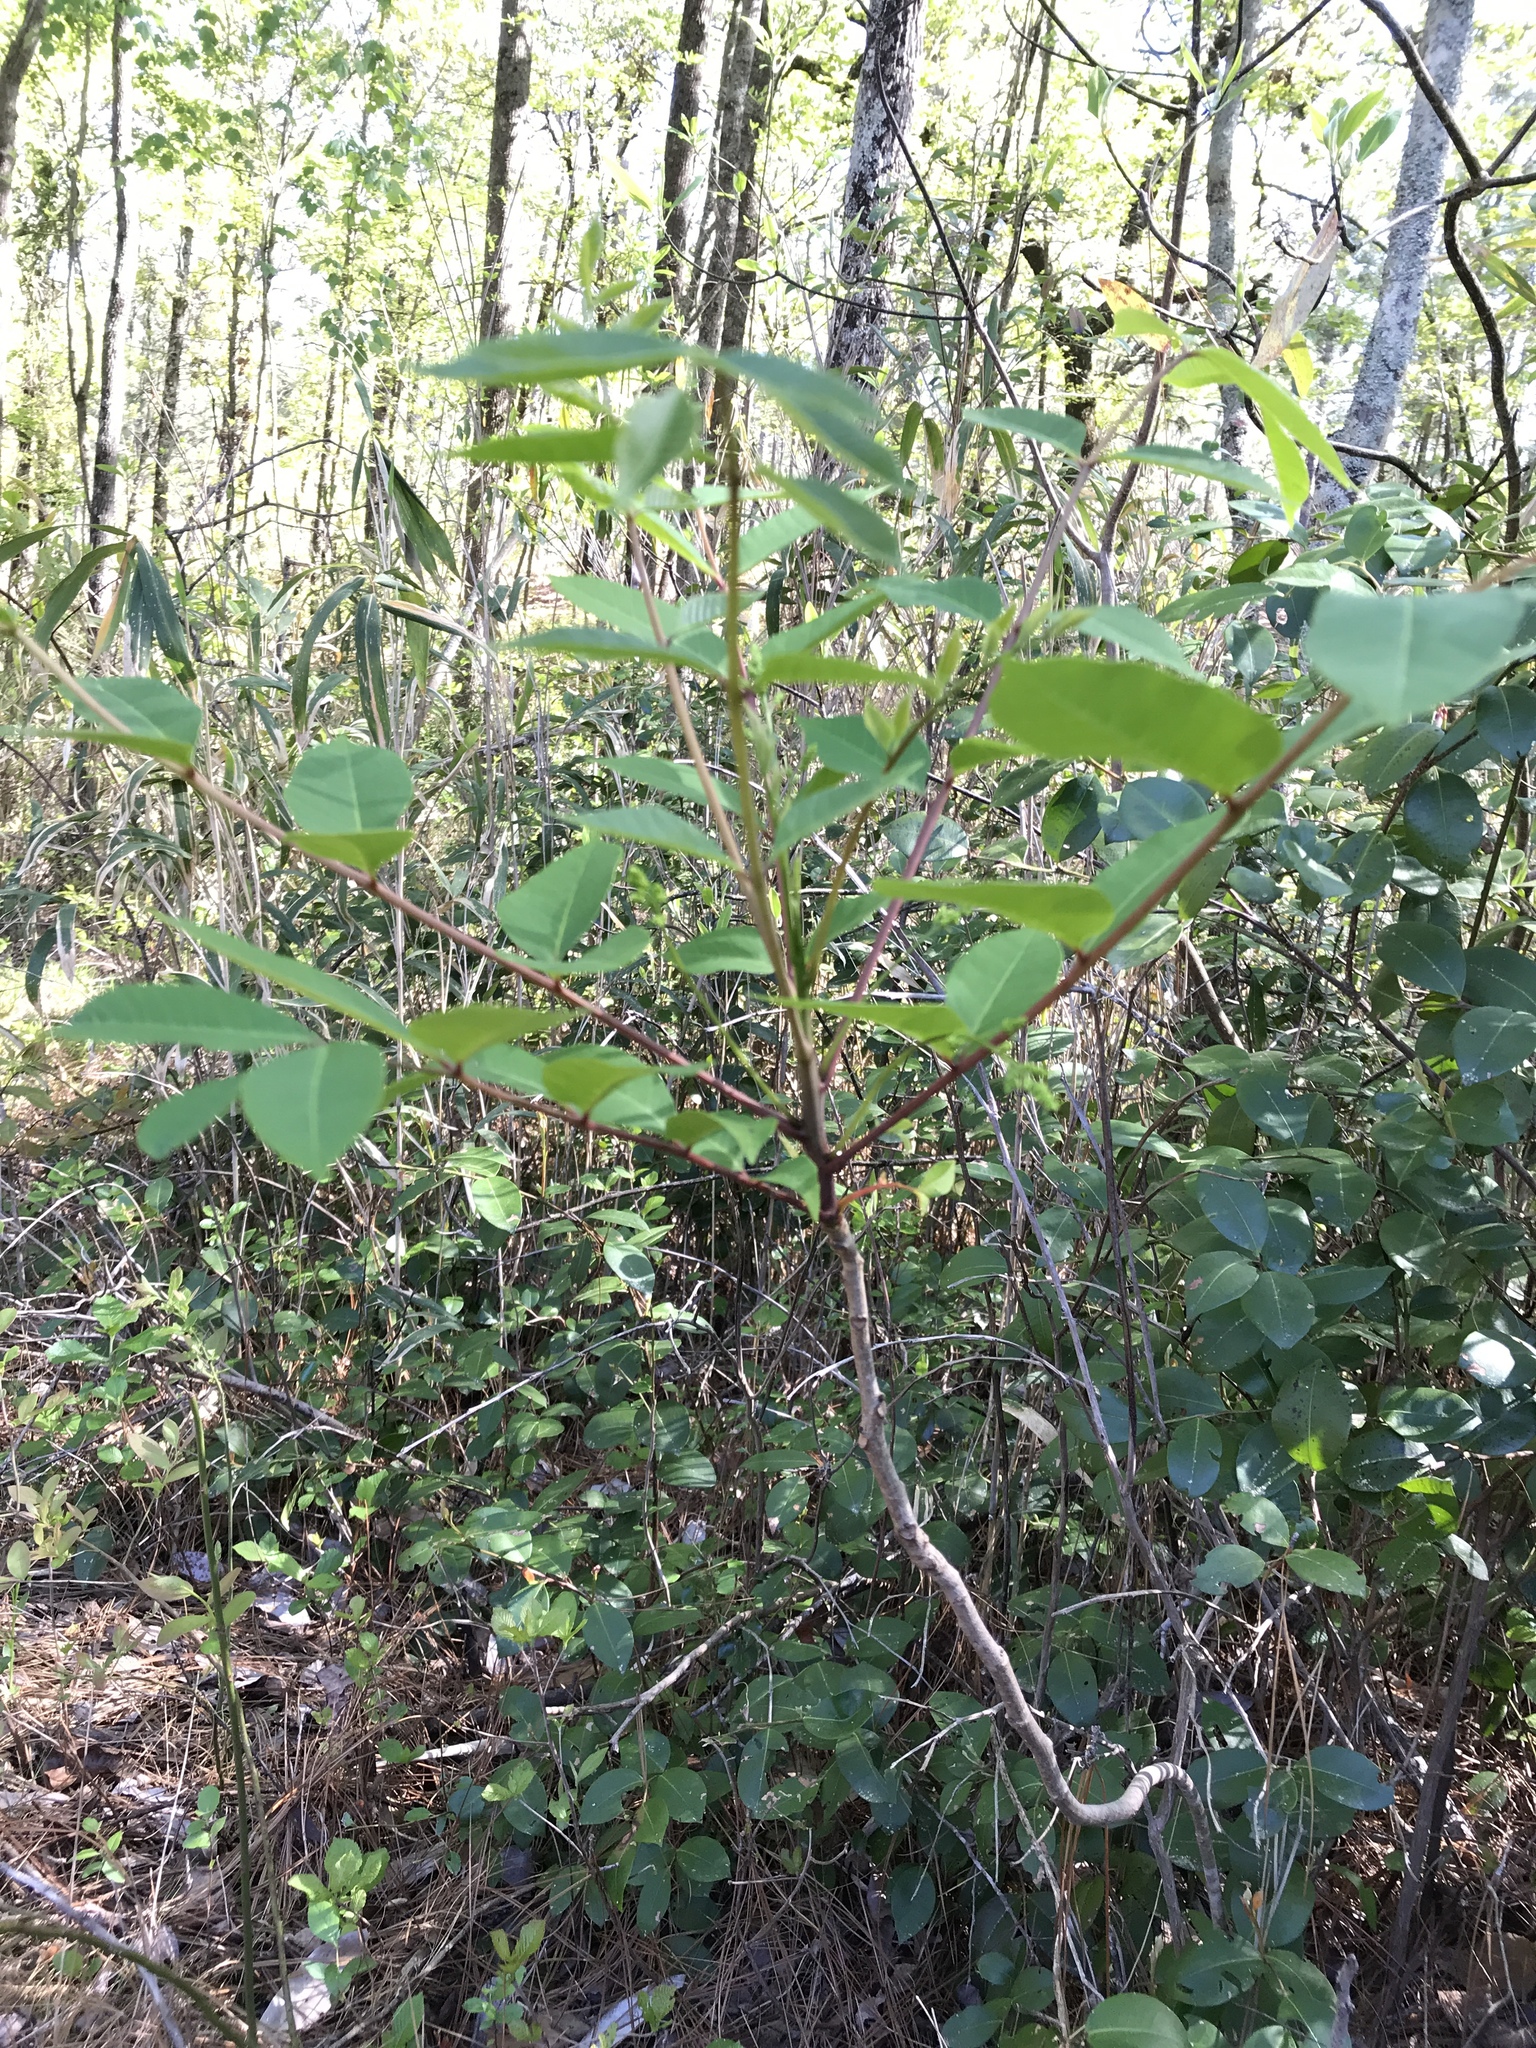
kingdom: Plantae
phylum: Tracheophyta
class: Magnoliopsida
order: Sapindales
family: Anacardiaceae
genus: Toxicodendron
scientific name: Toxicodendron vernix
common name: Poison sumac
